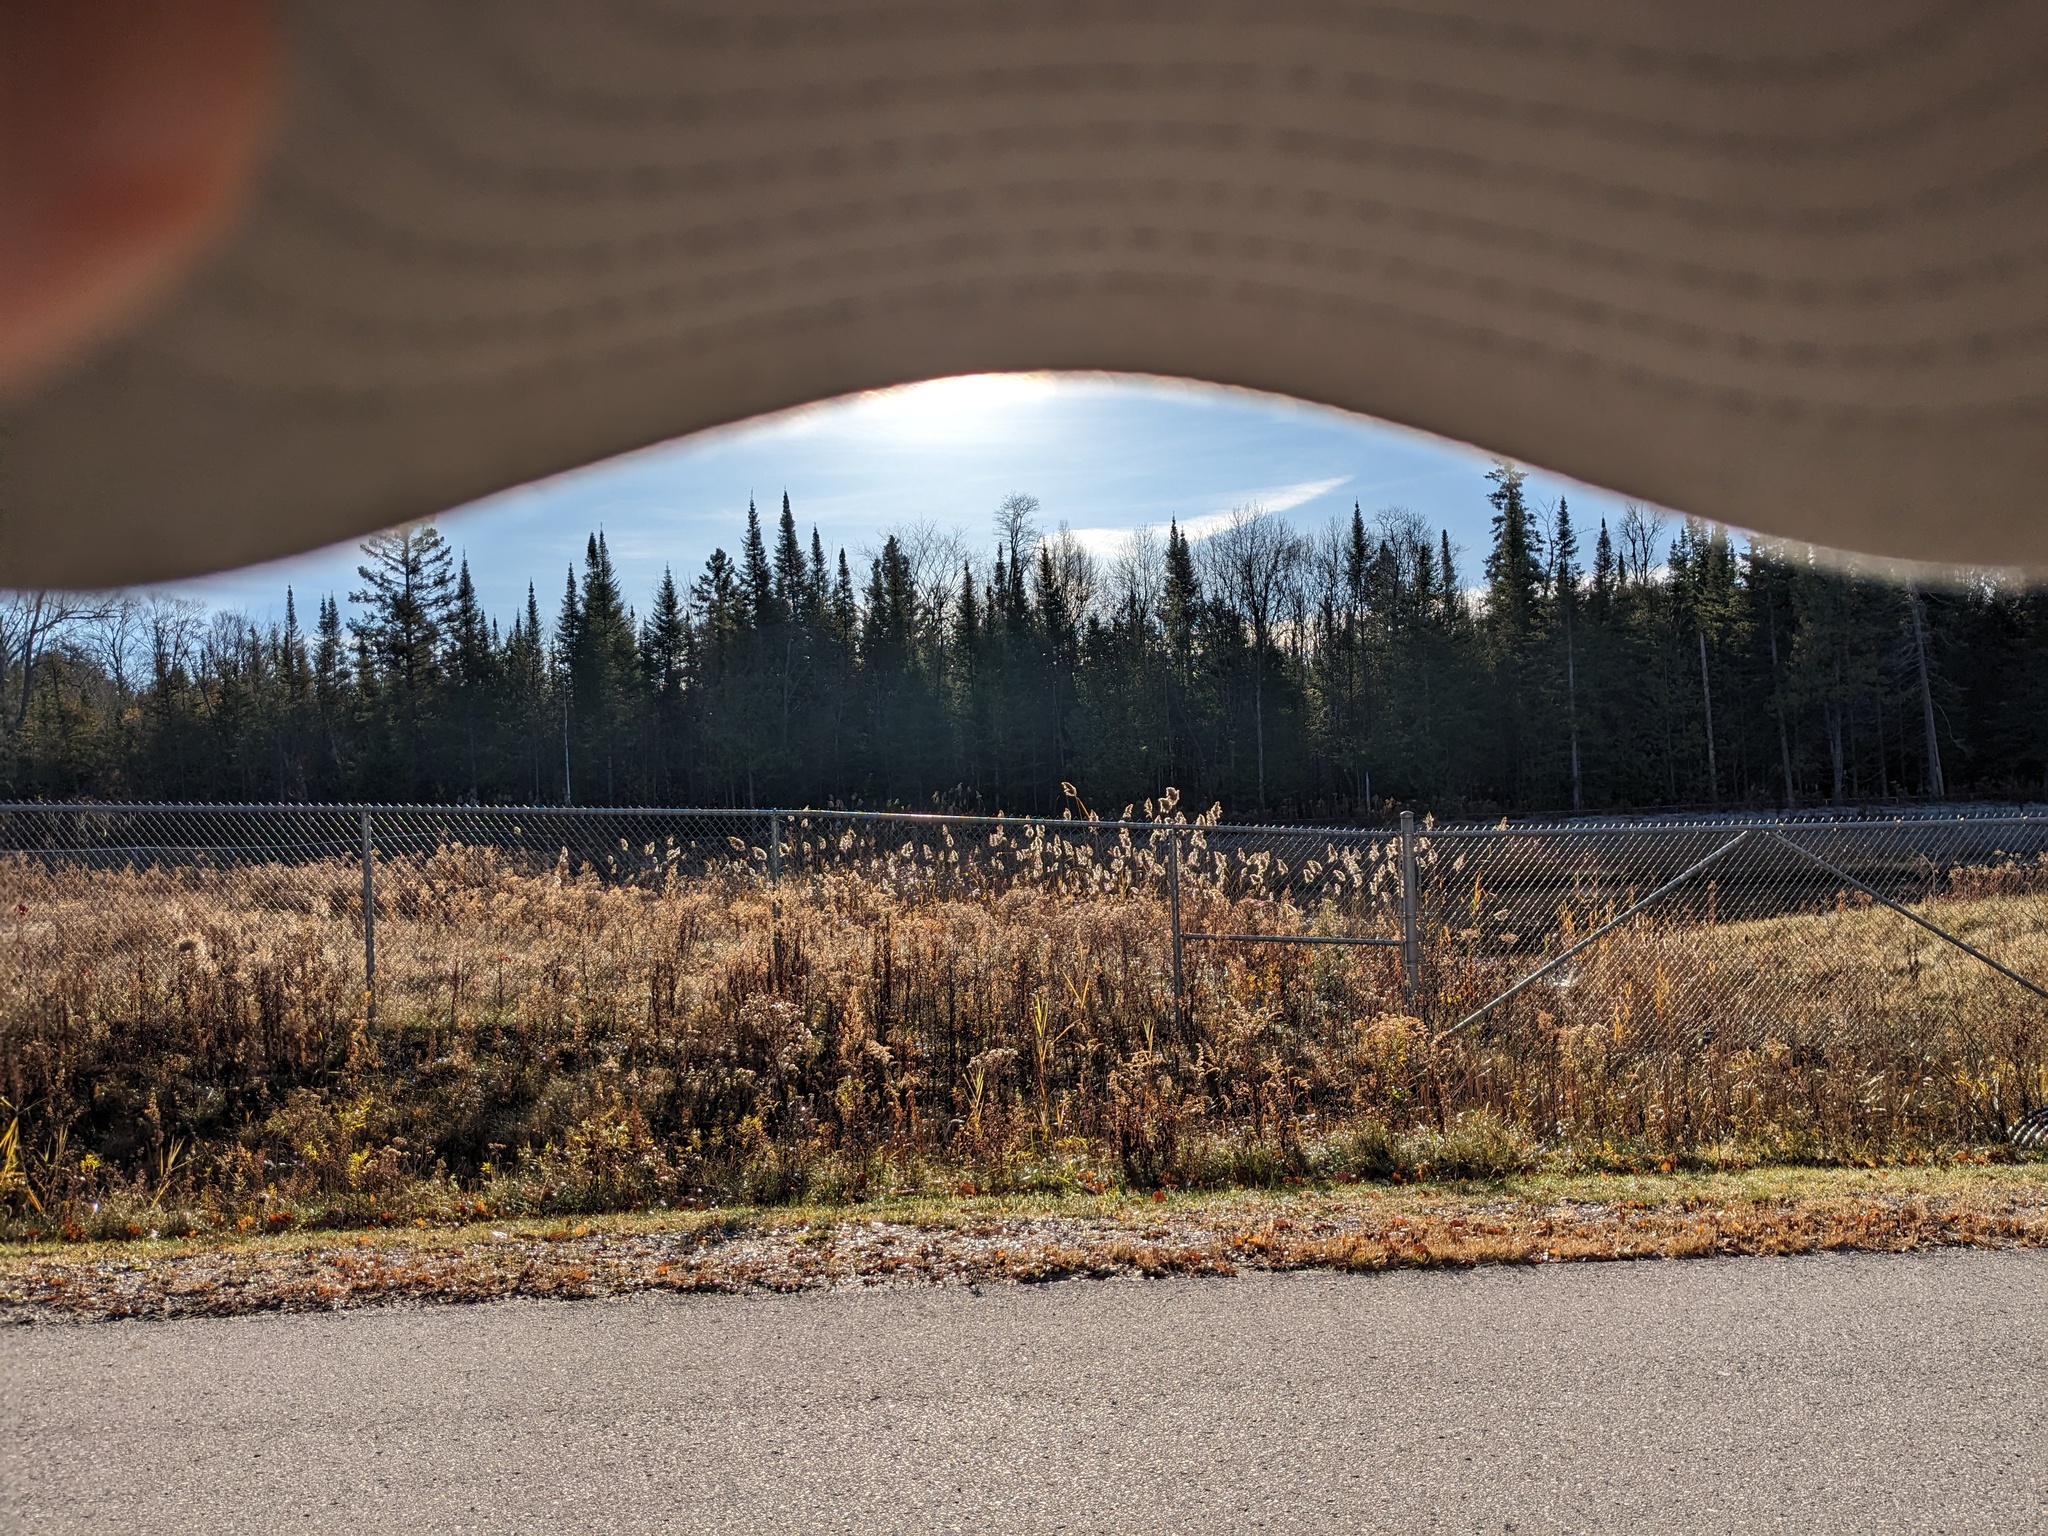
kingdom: Plantae
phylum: Tracheophyta
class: Liliopsida
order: Poales
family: Poaceae
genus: Phragmites
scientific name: Phragmites australis
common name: Common reed
